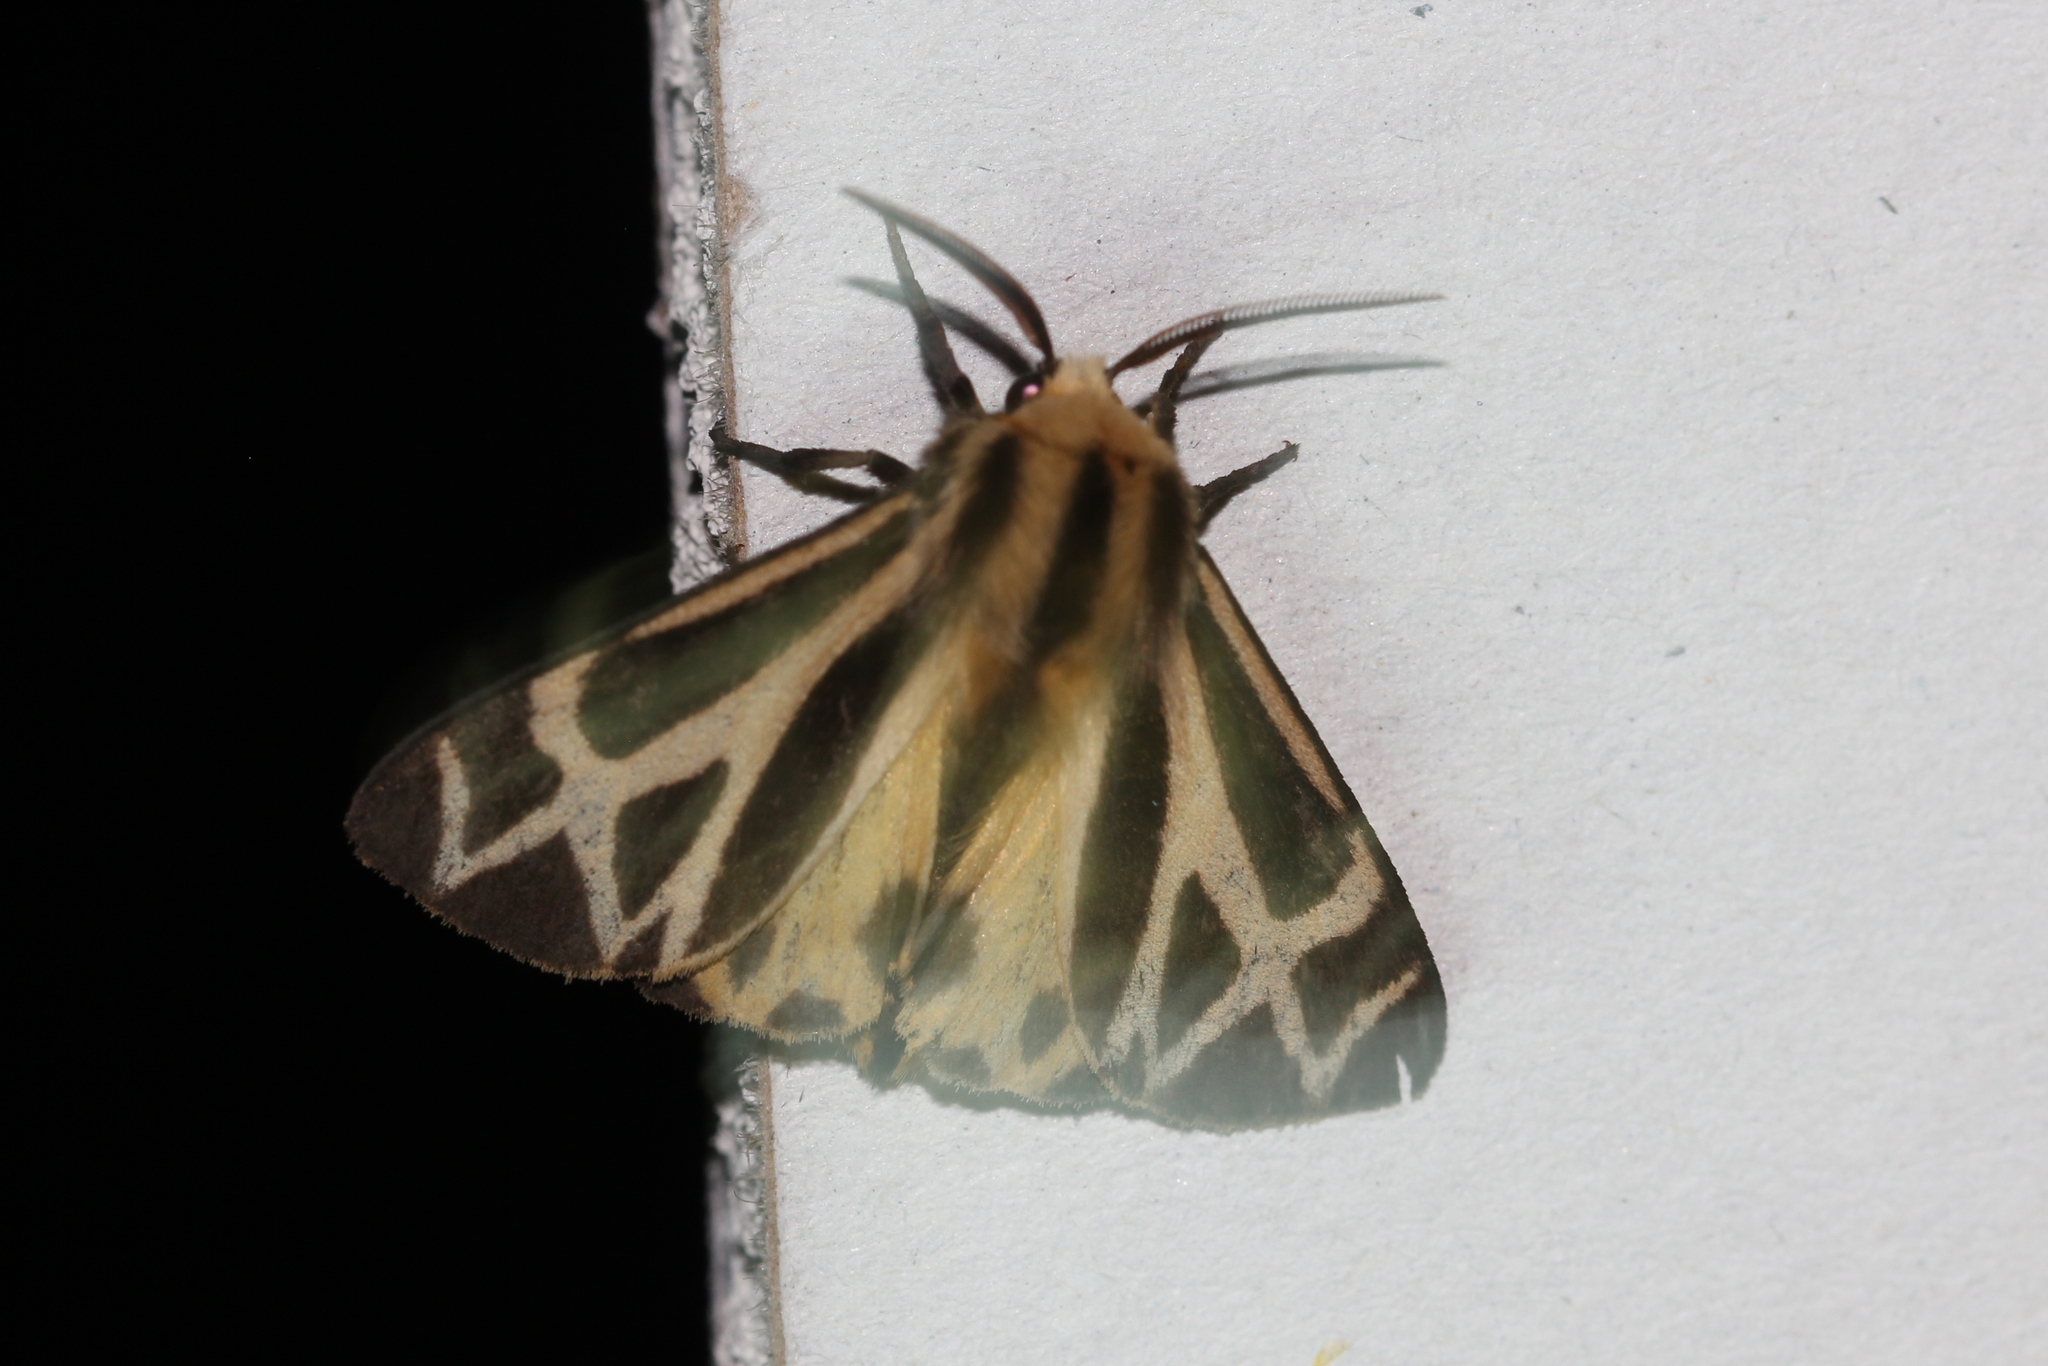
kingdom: Animalia
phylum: Arthropoda
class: Insecta
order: Lepidoptera
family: Erebidae
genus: Apantesis
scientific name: Apantesis carlotta
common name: Carlotta's tiger moth
